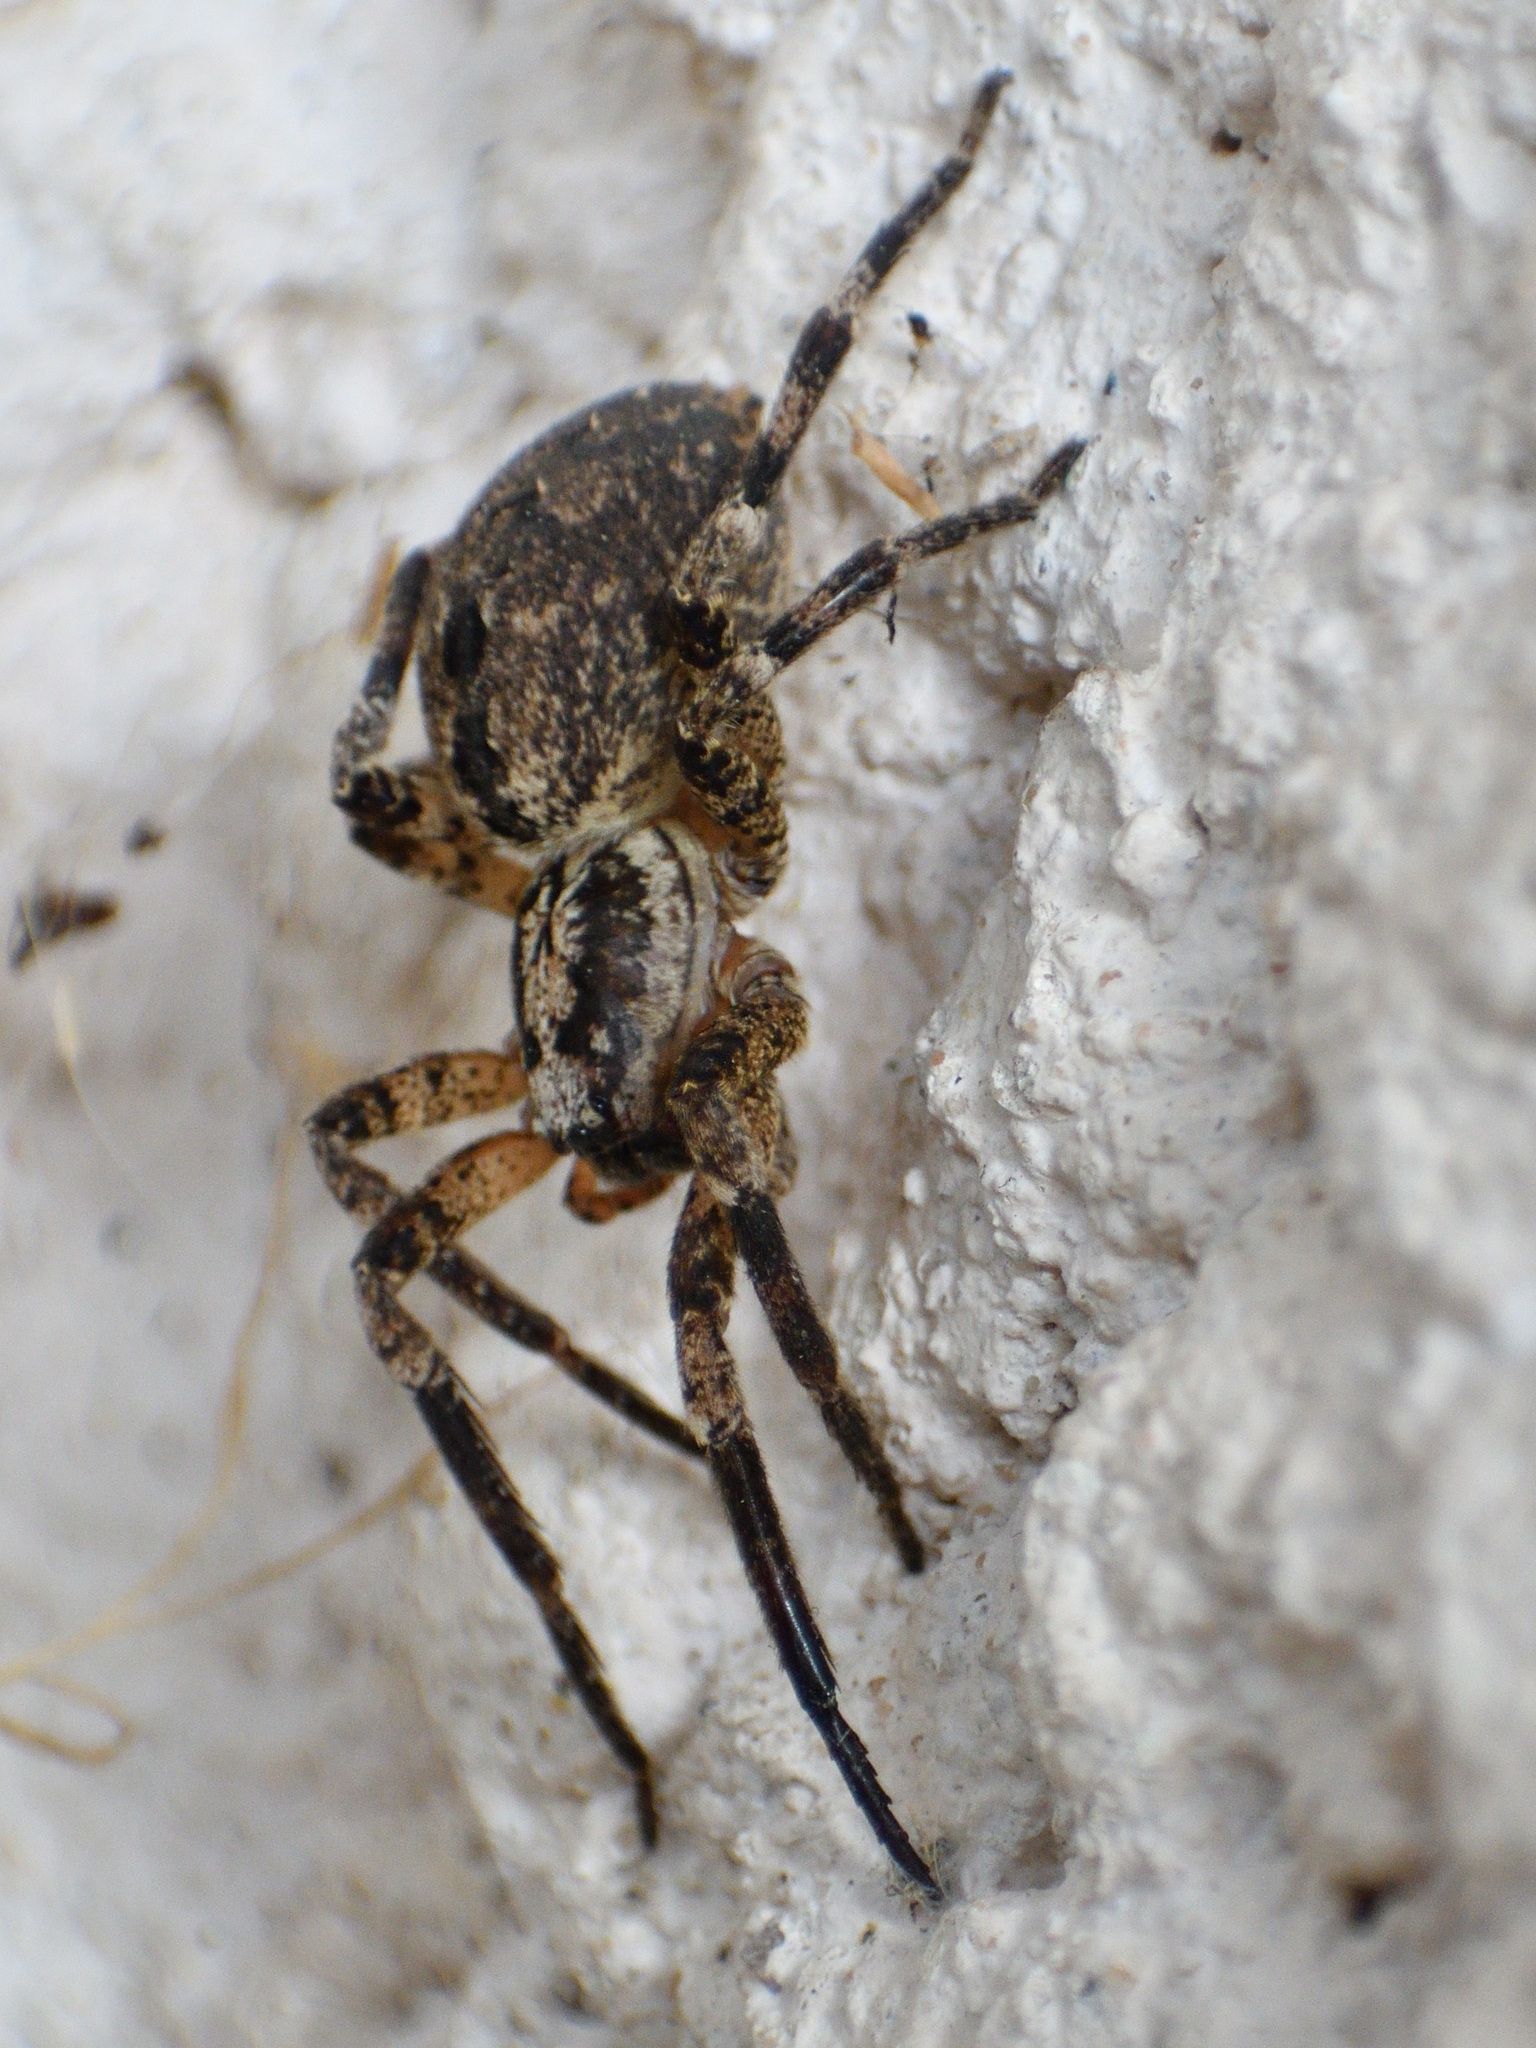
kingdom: Animalia
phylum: Arthropoda
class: Arachnida
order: Araneae
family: Zoropsidae
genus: Zoropsis
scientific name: Zoropsis spinimana
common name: Zoropsid spider
